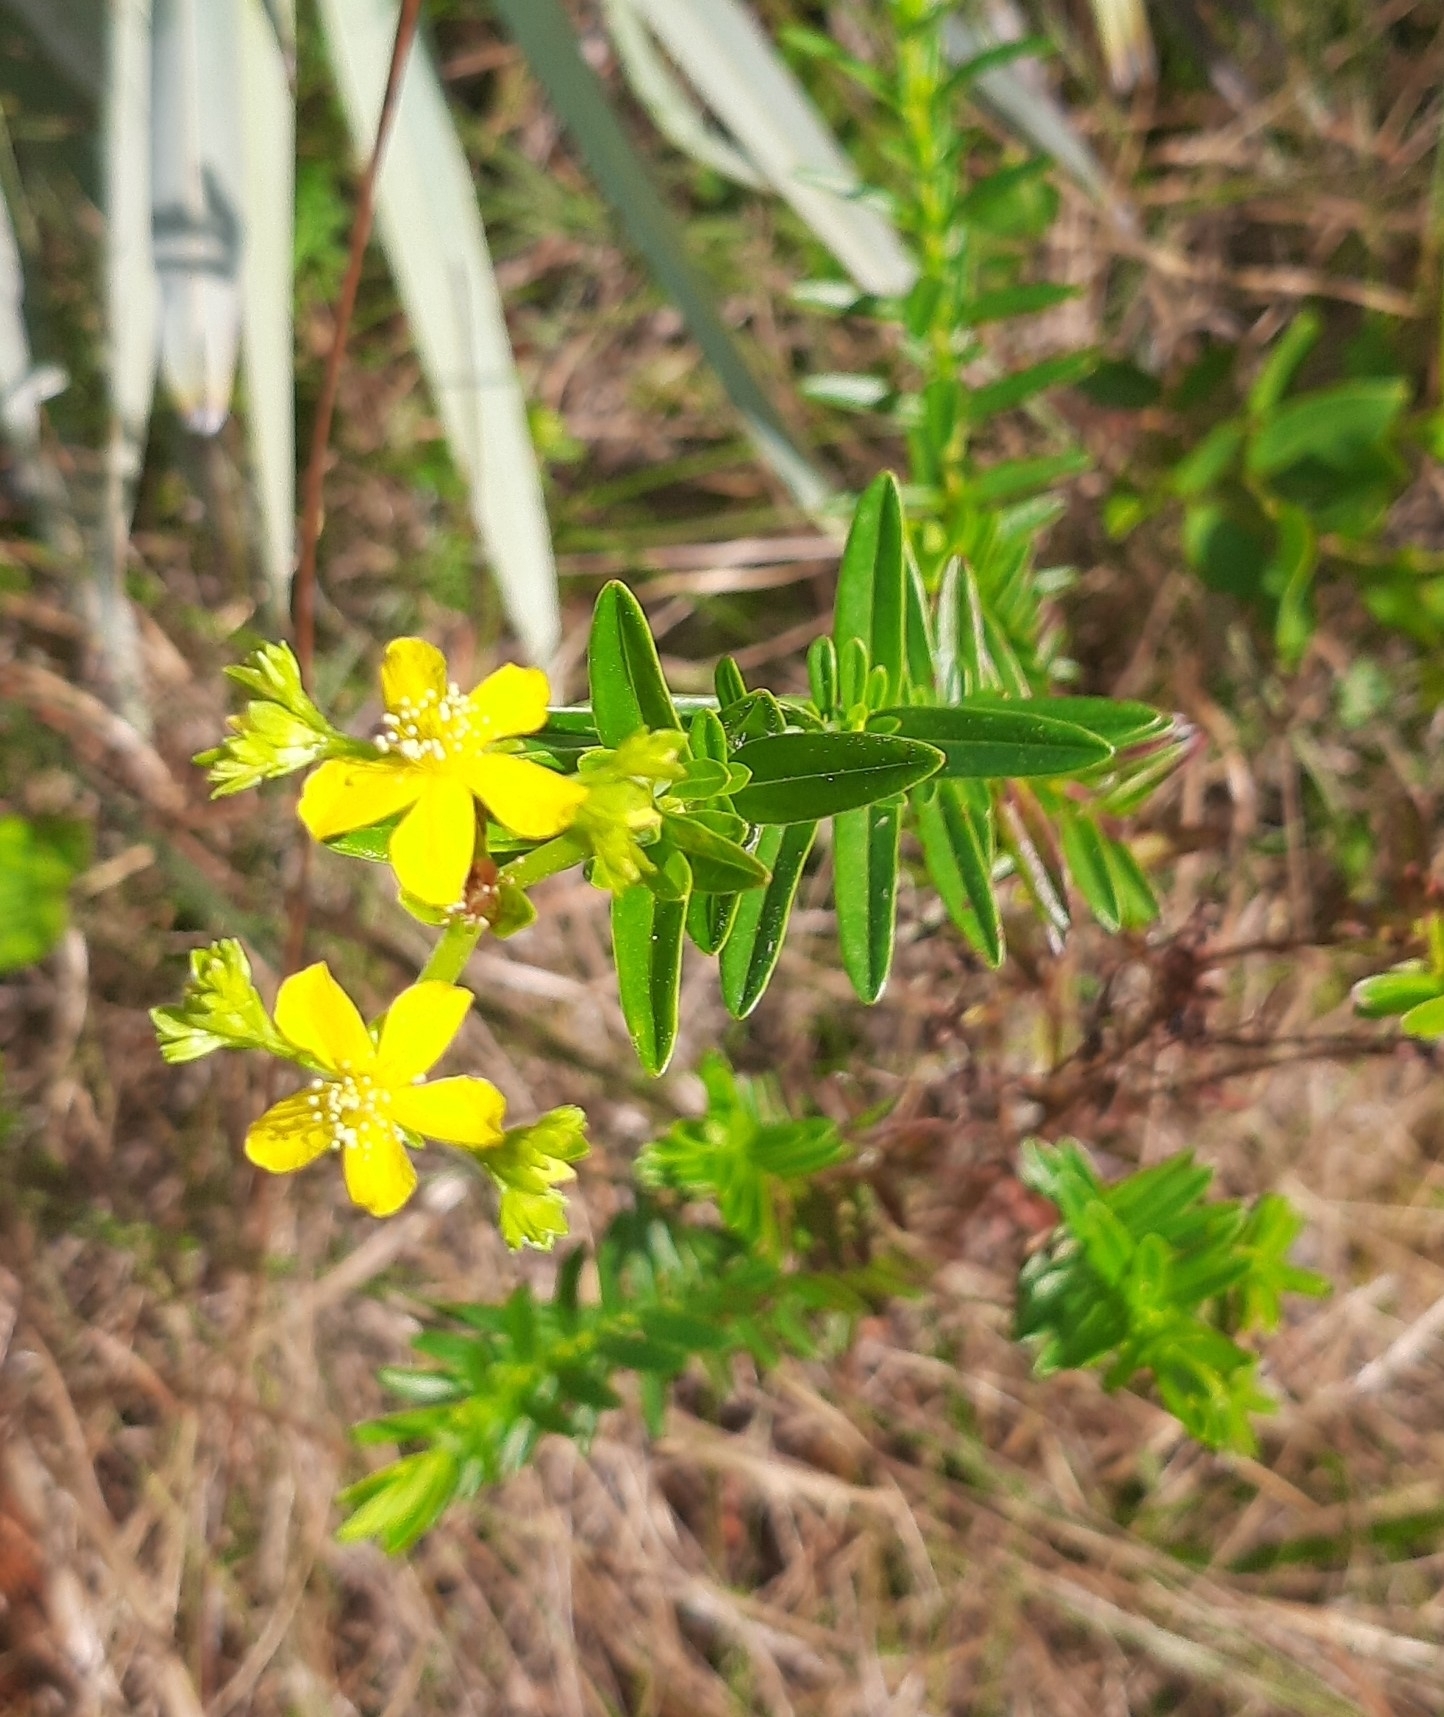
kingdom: Plantae
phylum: Tracheophyta
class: Magnoliopsida
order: Malpighiales
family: Hypericaceae
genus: Hypericum
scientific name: Hypericum cistifolium
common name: Round-pod st. john's-wort
